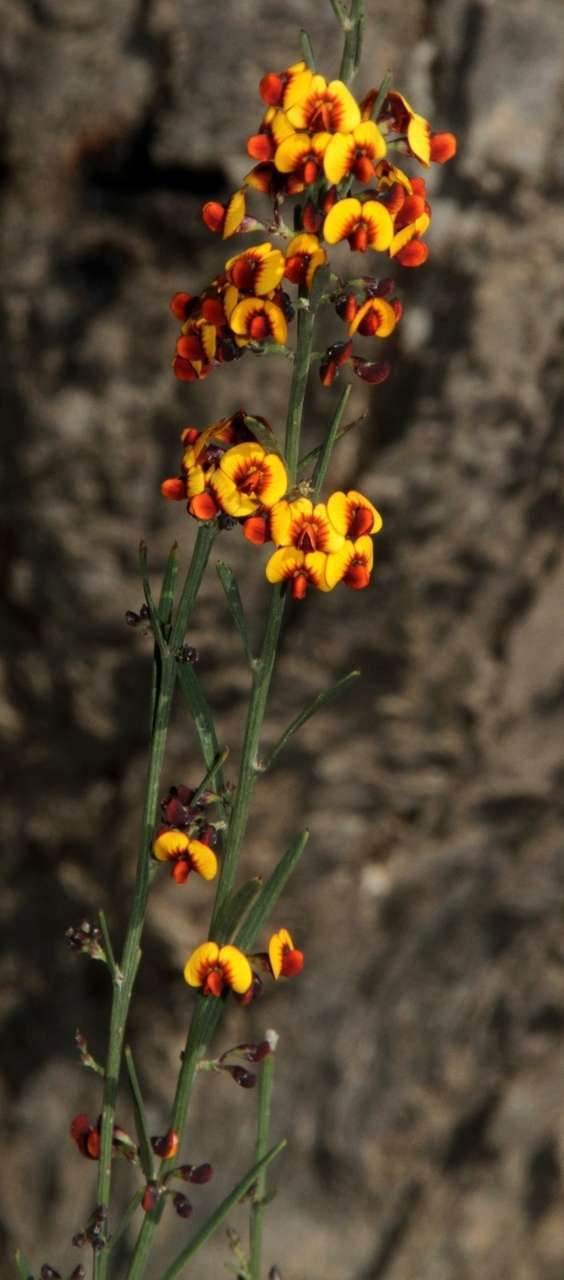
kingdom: Plantae
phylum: Tracheophyta
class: Magnoliopsida
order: Fabales
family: Fabaceae
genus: Daviesia
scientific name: Daviesia leptophylla
